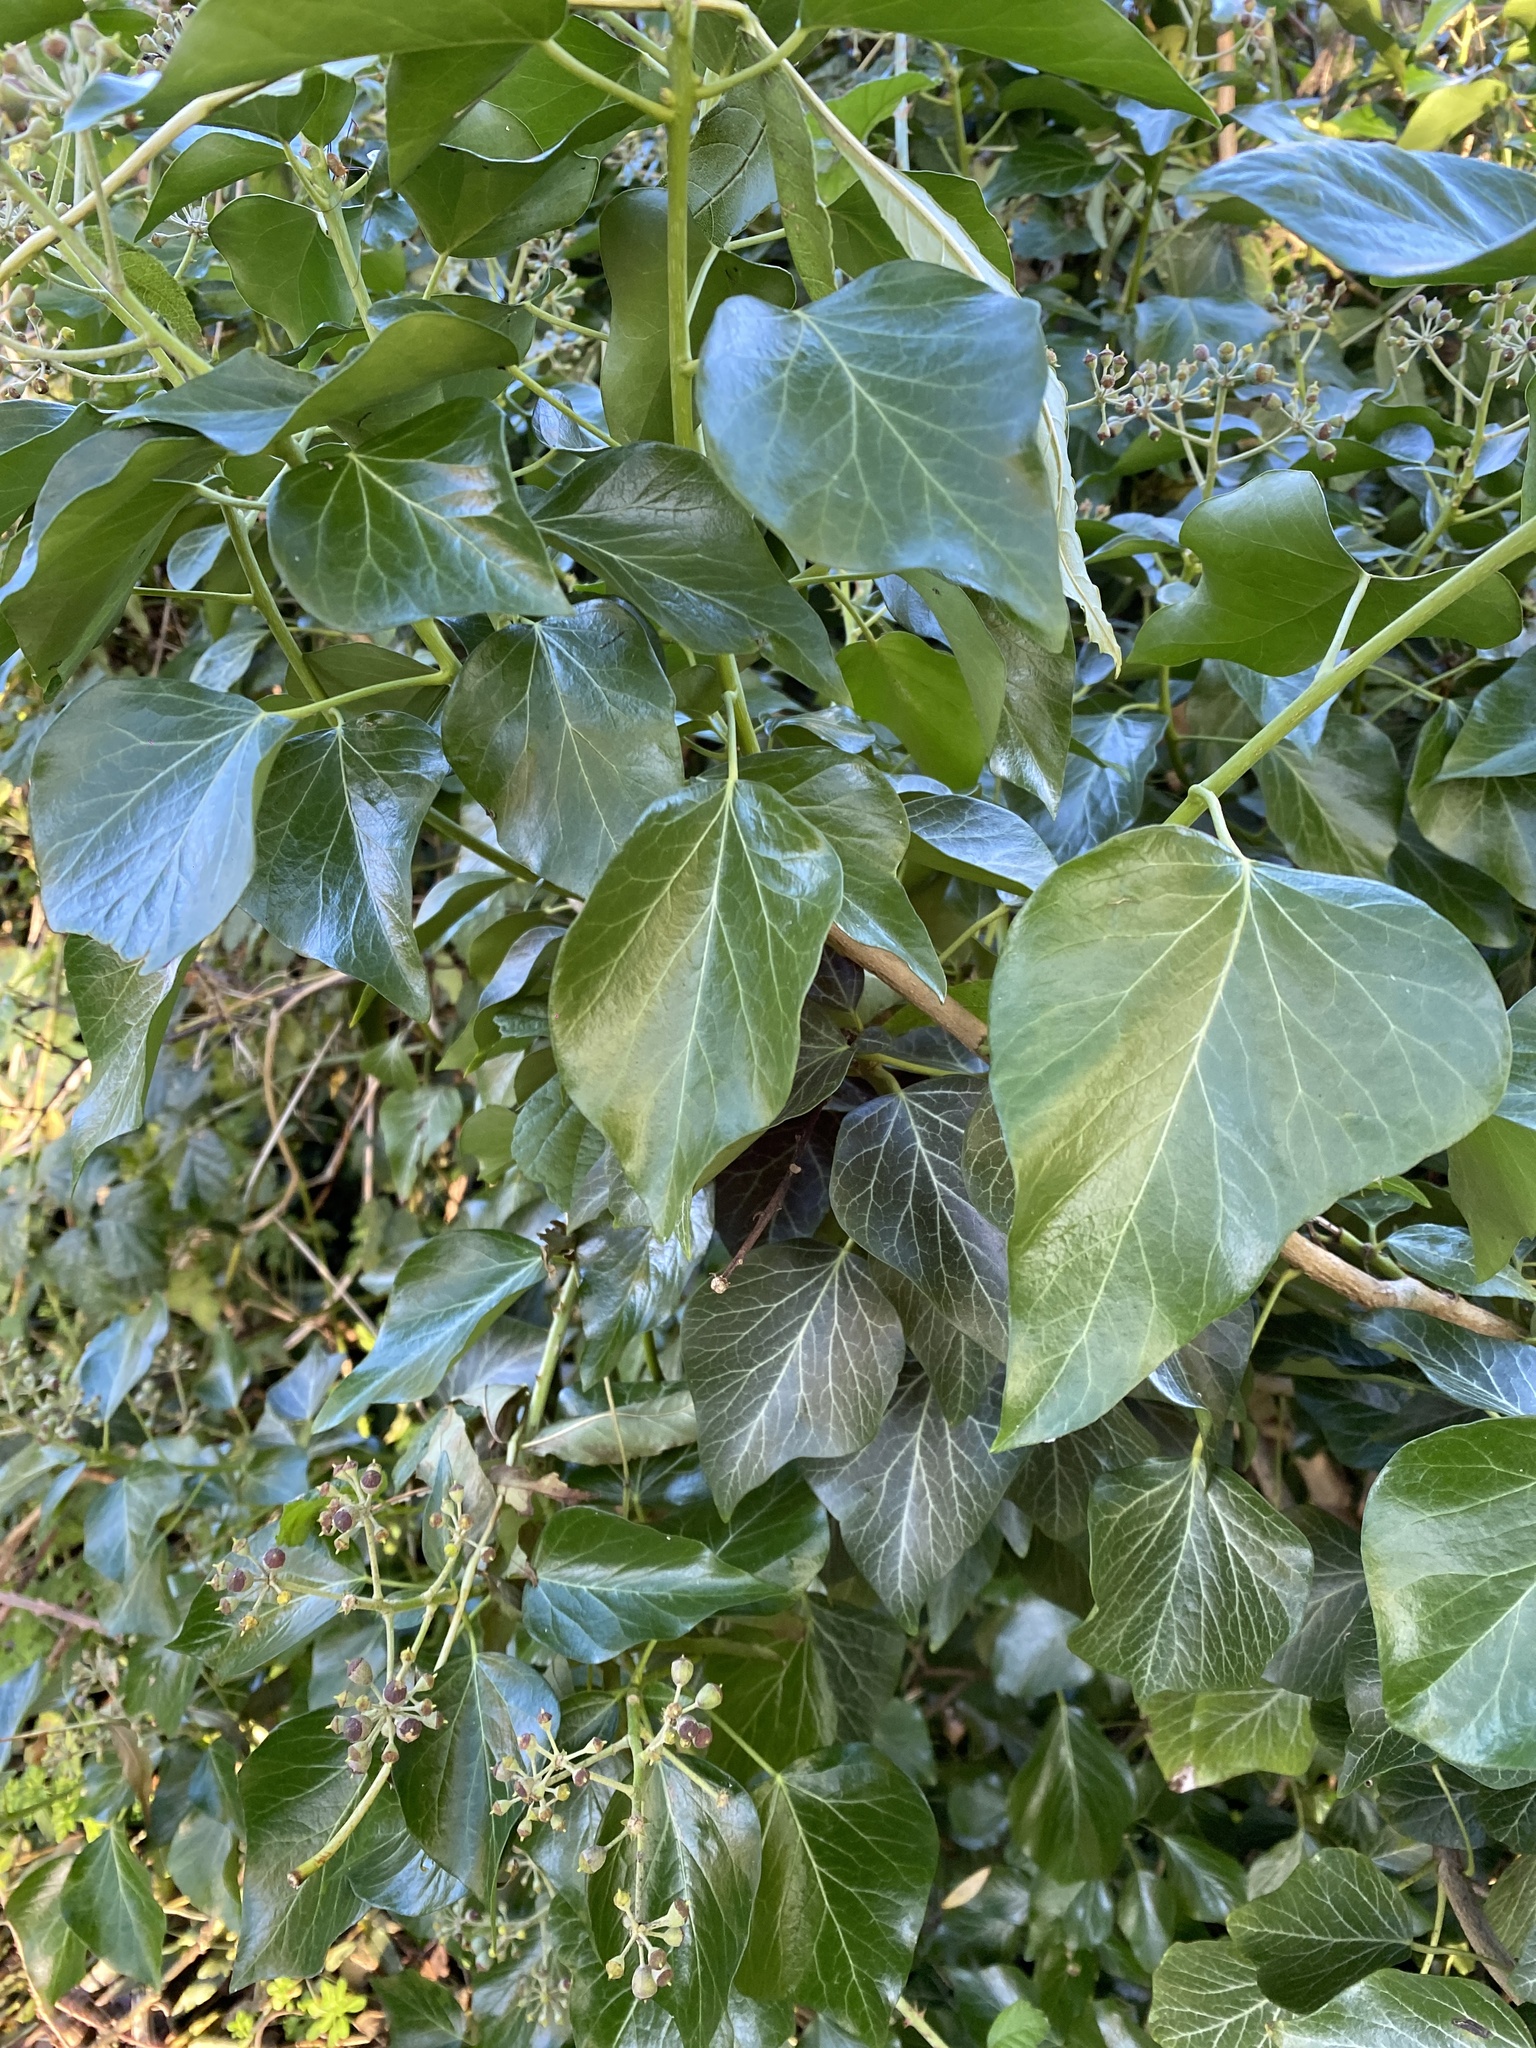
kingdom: Plantae
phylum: Tracheophyta
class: Magnoliopsida
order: Apiales
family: Araliaceae
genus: Hedera
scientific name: Hedera helix
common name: Ivy
